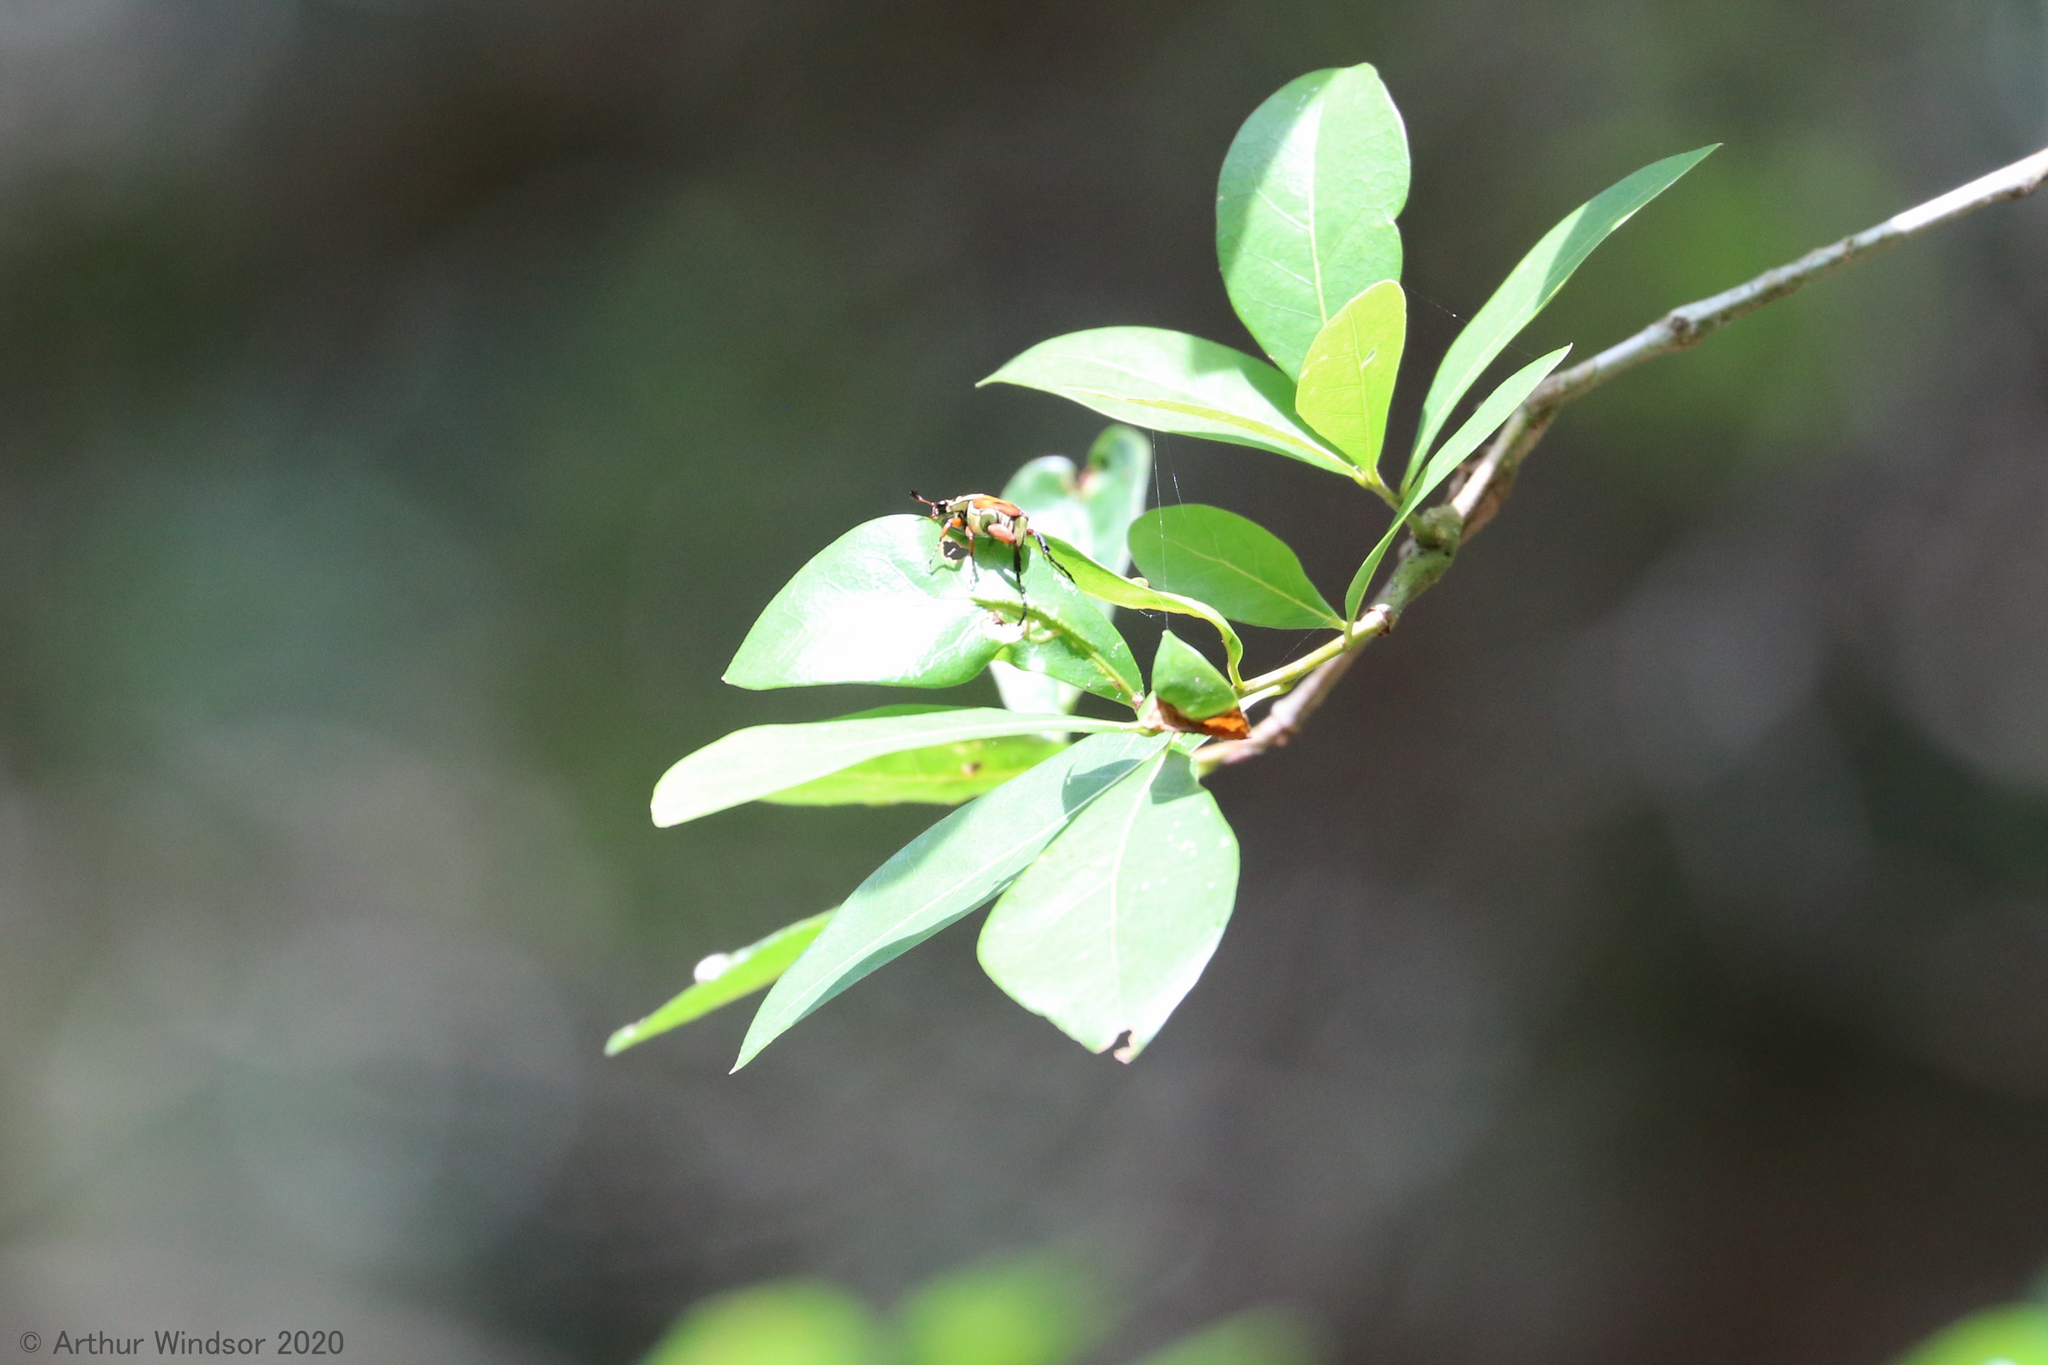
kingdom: Animalia
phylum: Arthropoda
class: Insecta
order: Coleoptera
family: Scarabaeidae
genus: Trigonopeltastes
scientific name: Trigonopeltastes delta
